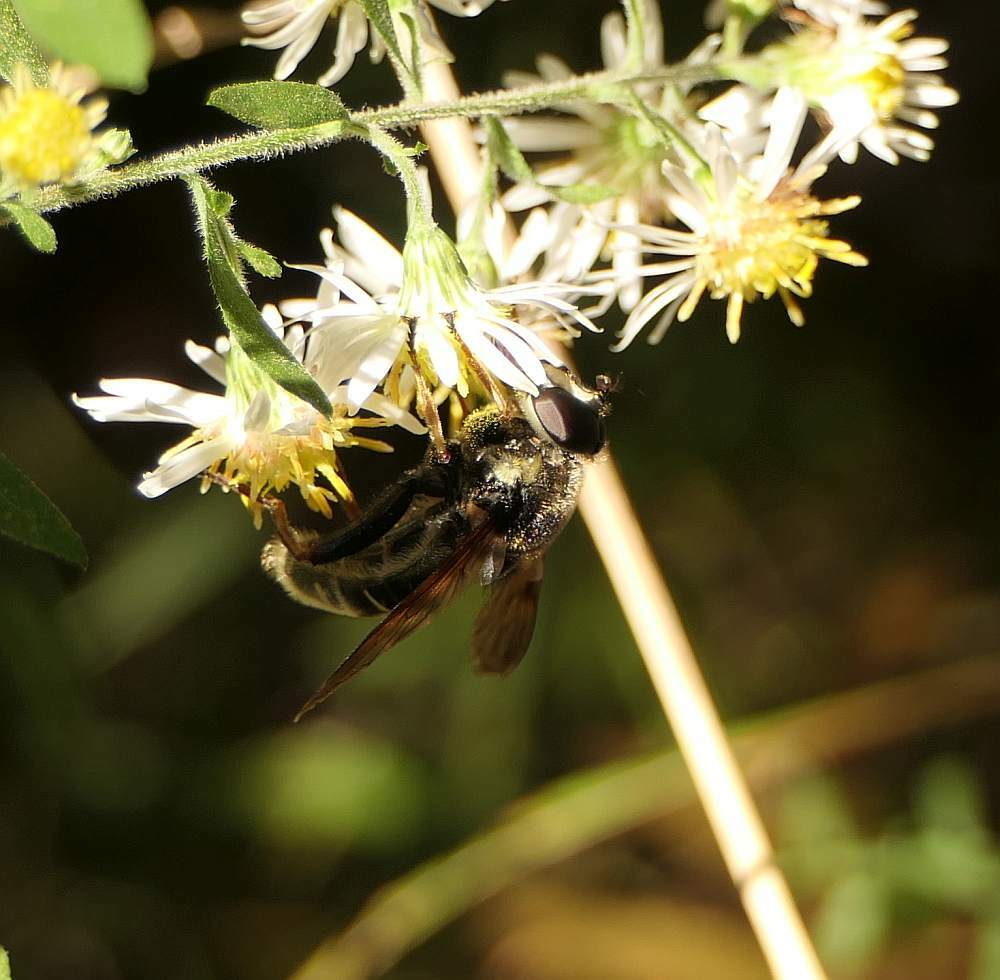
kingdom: Animalia
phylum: Arthropoda
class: Insecta
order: Diptera
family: Syrphidae
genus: Sericomyia
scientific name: Sericomyia militaris
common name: Narrow-banded pond fly
